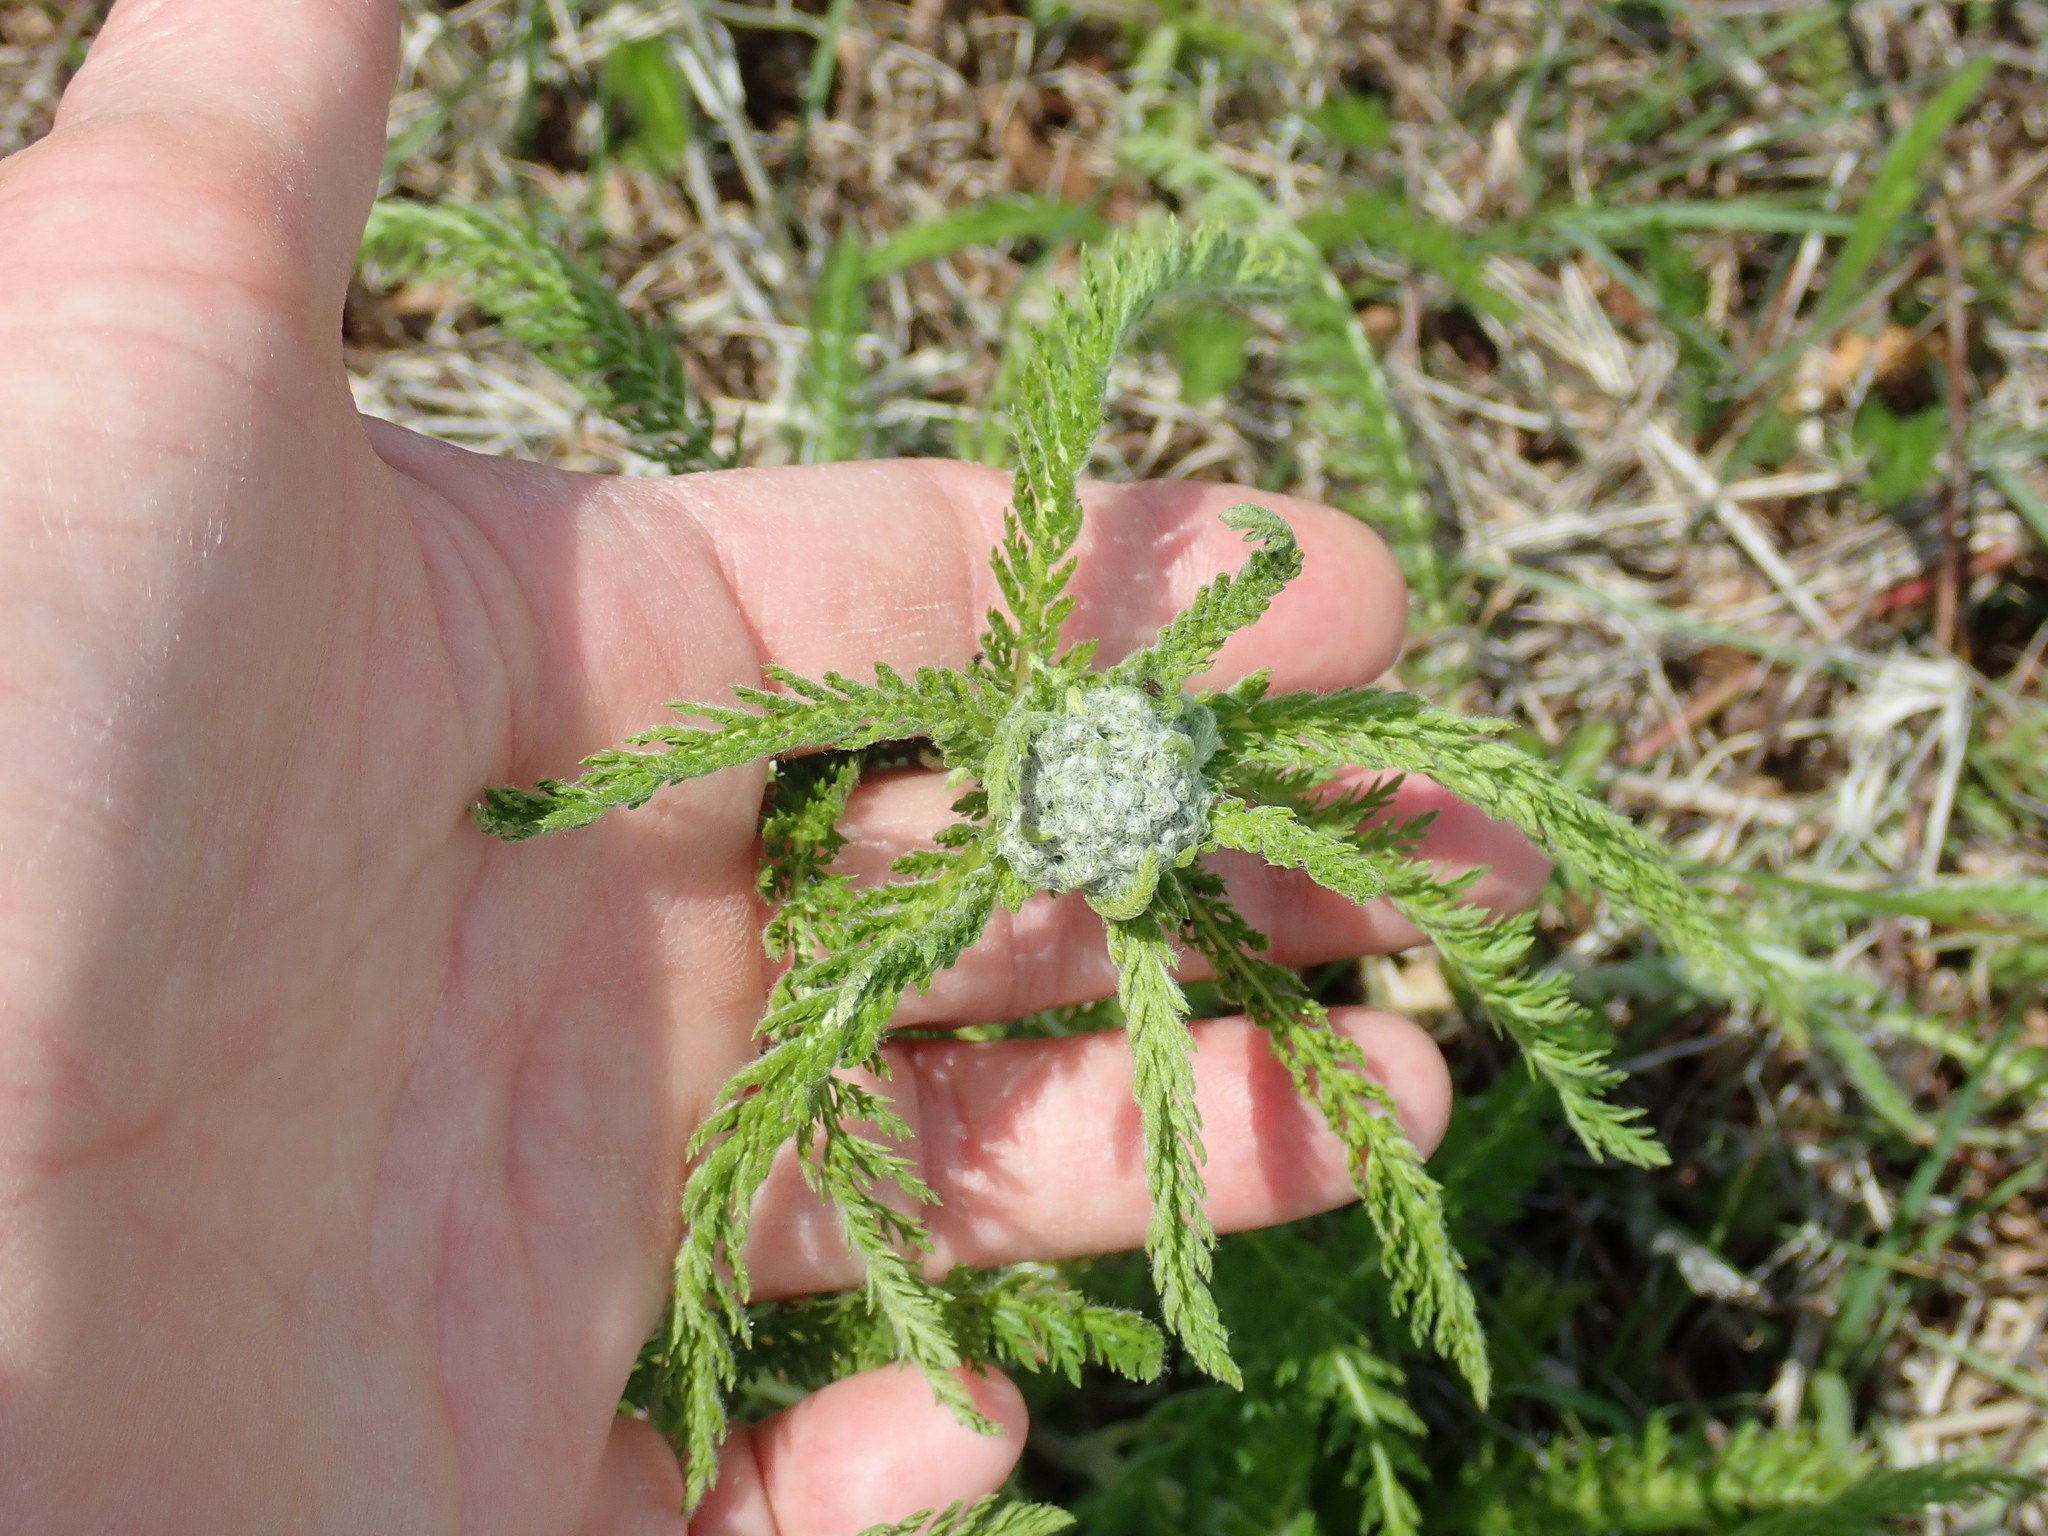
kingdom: Plantae
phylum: Tracheophyta
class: Magnoliopsida
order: Asterales
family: Asteraceae
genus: Achillea
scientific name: Achillea millefolium
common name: Yarrow
